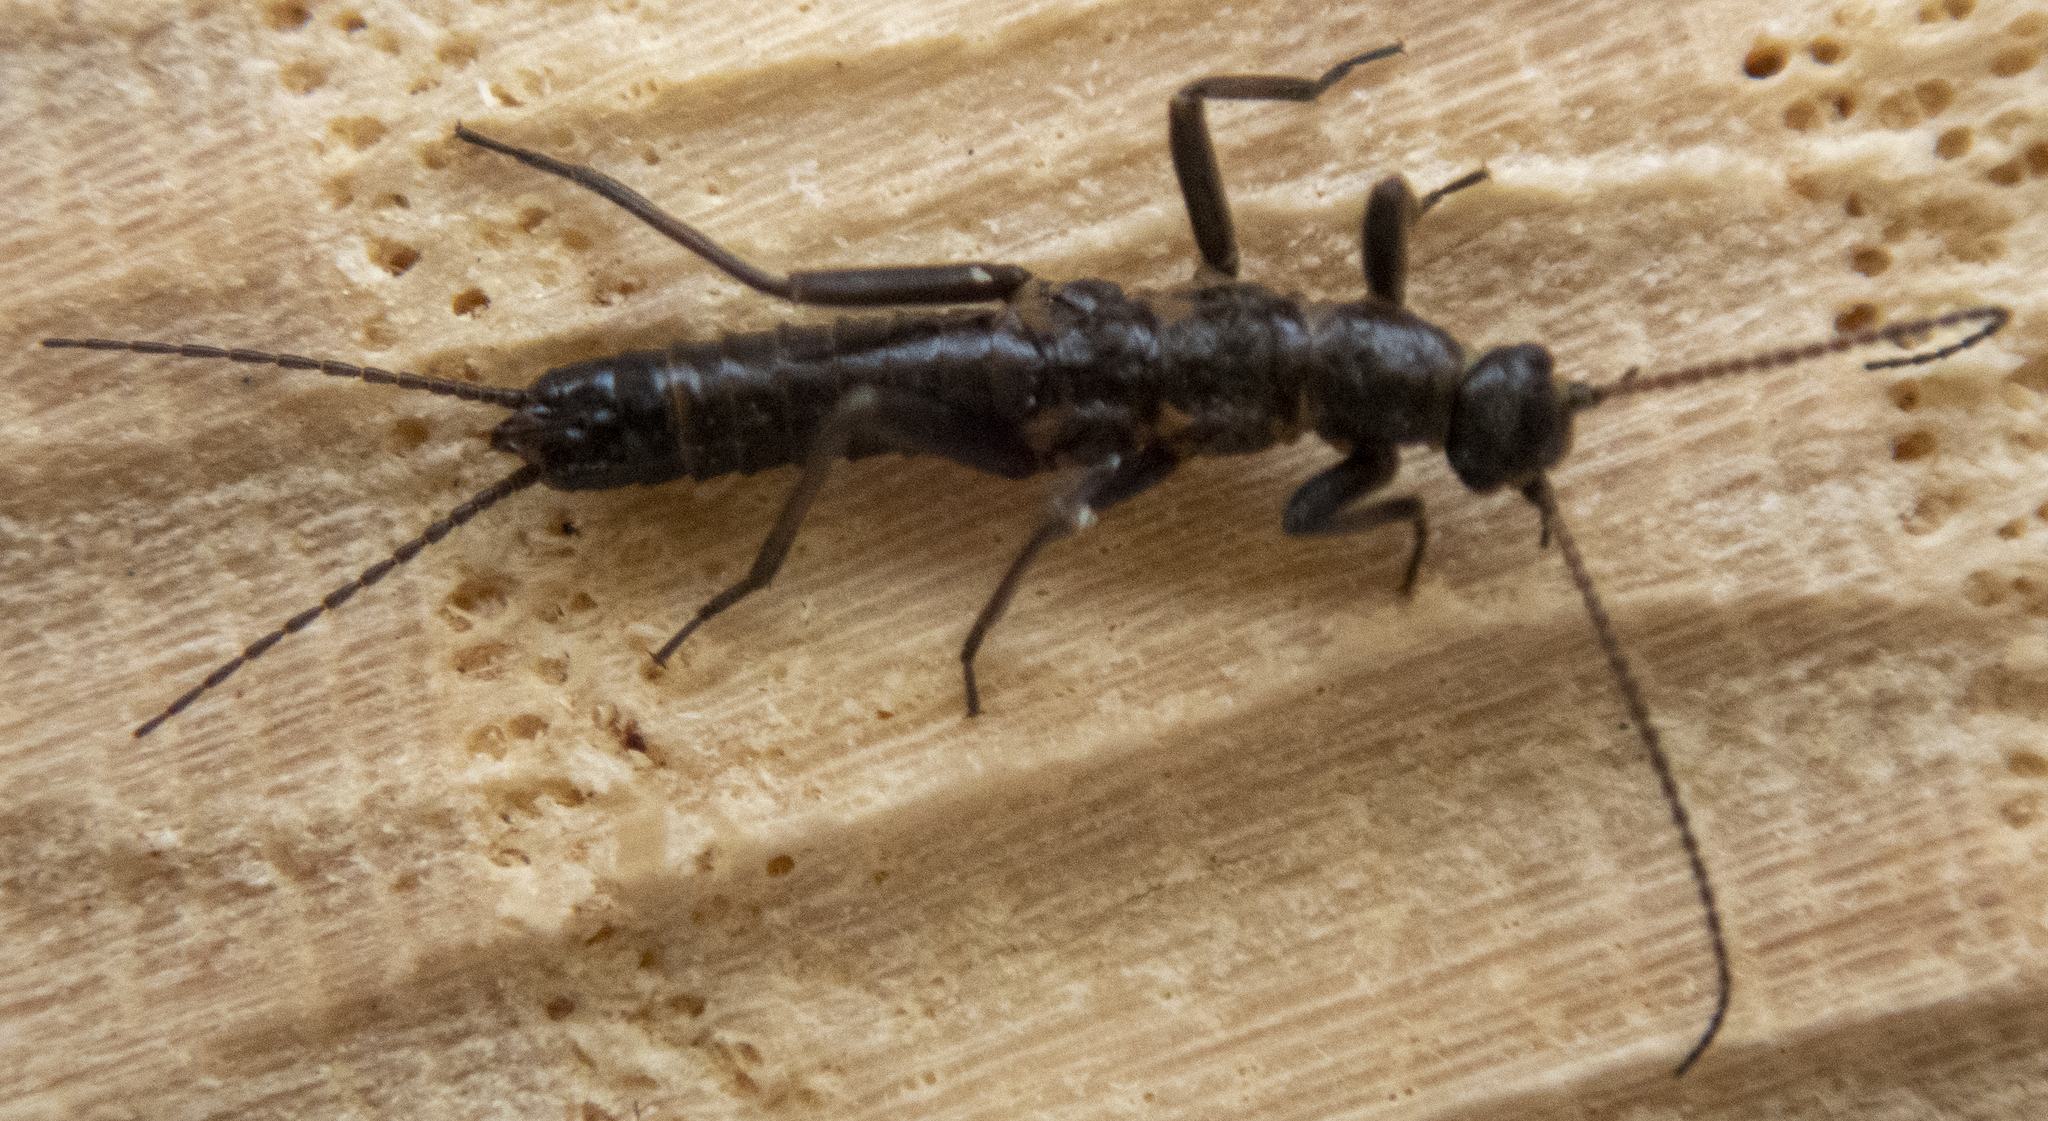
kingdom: Animalia
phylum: Arthropoda
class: Insecta
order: Plecoptera
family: Capniidae
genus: Allocapnia
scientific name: Allocapnia vivipara
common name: Shortwing snowfly
